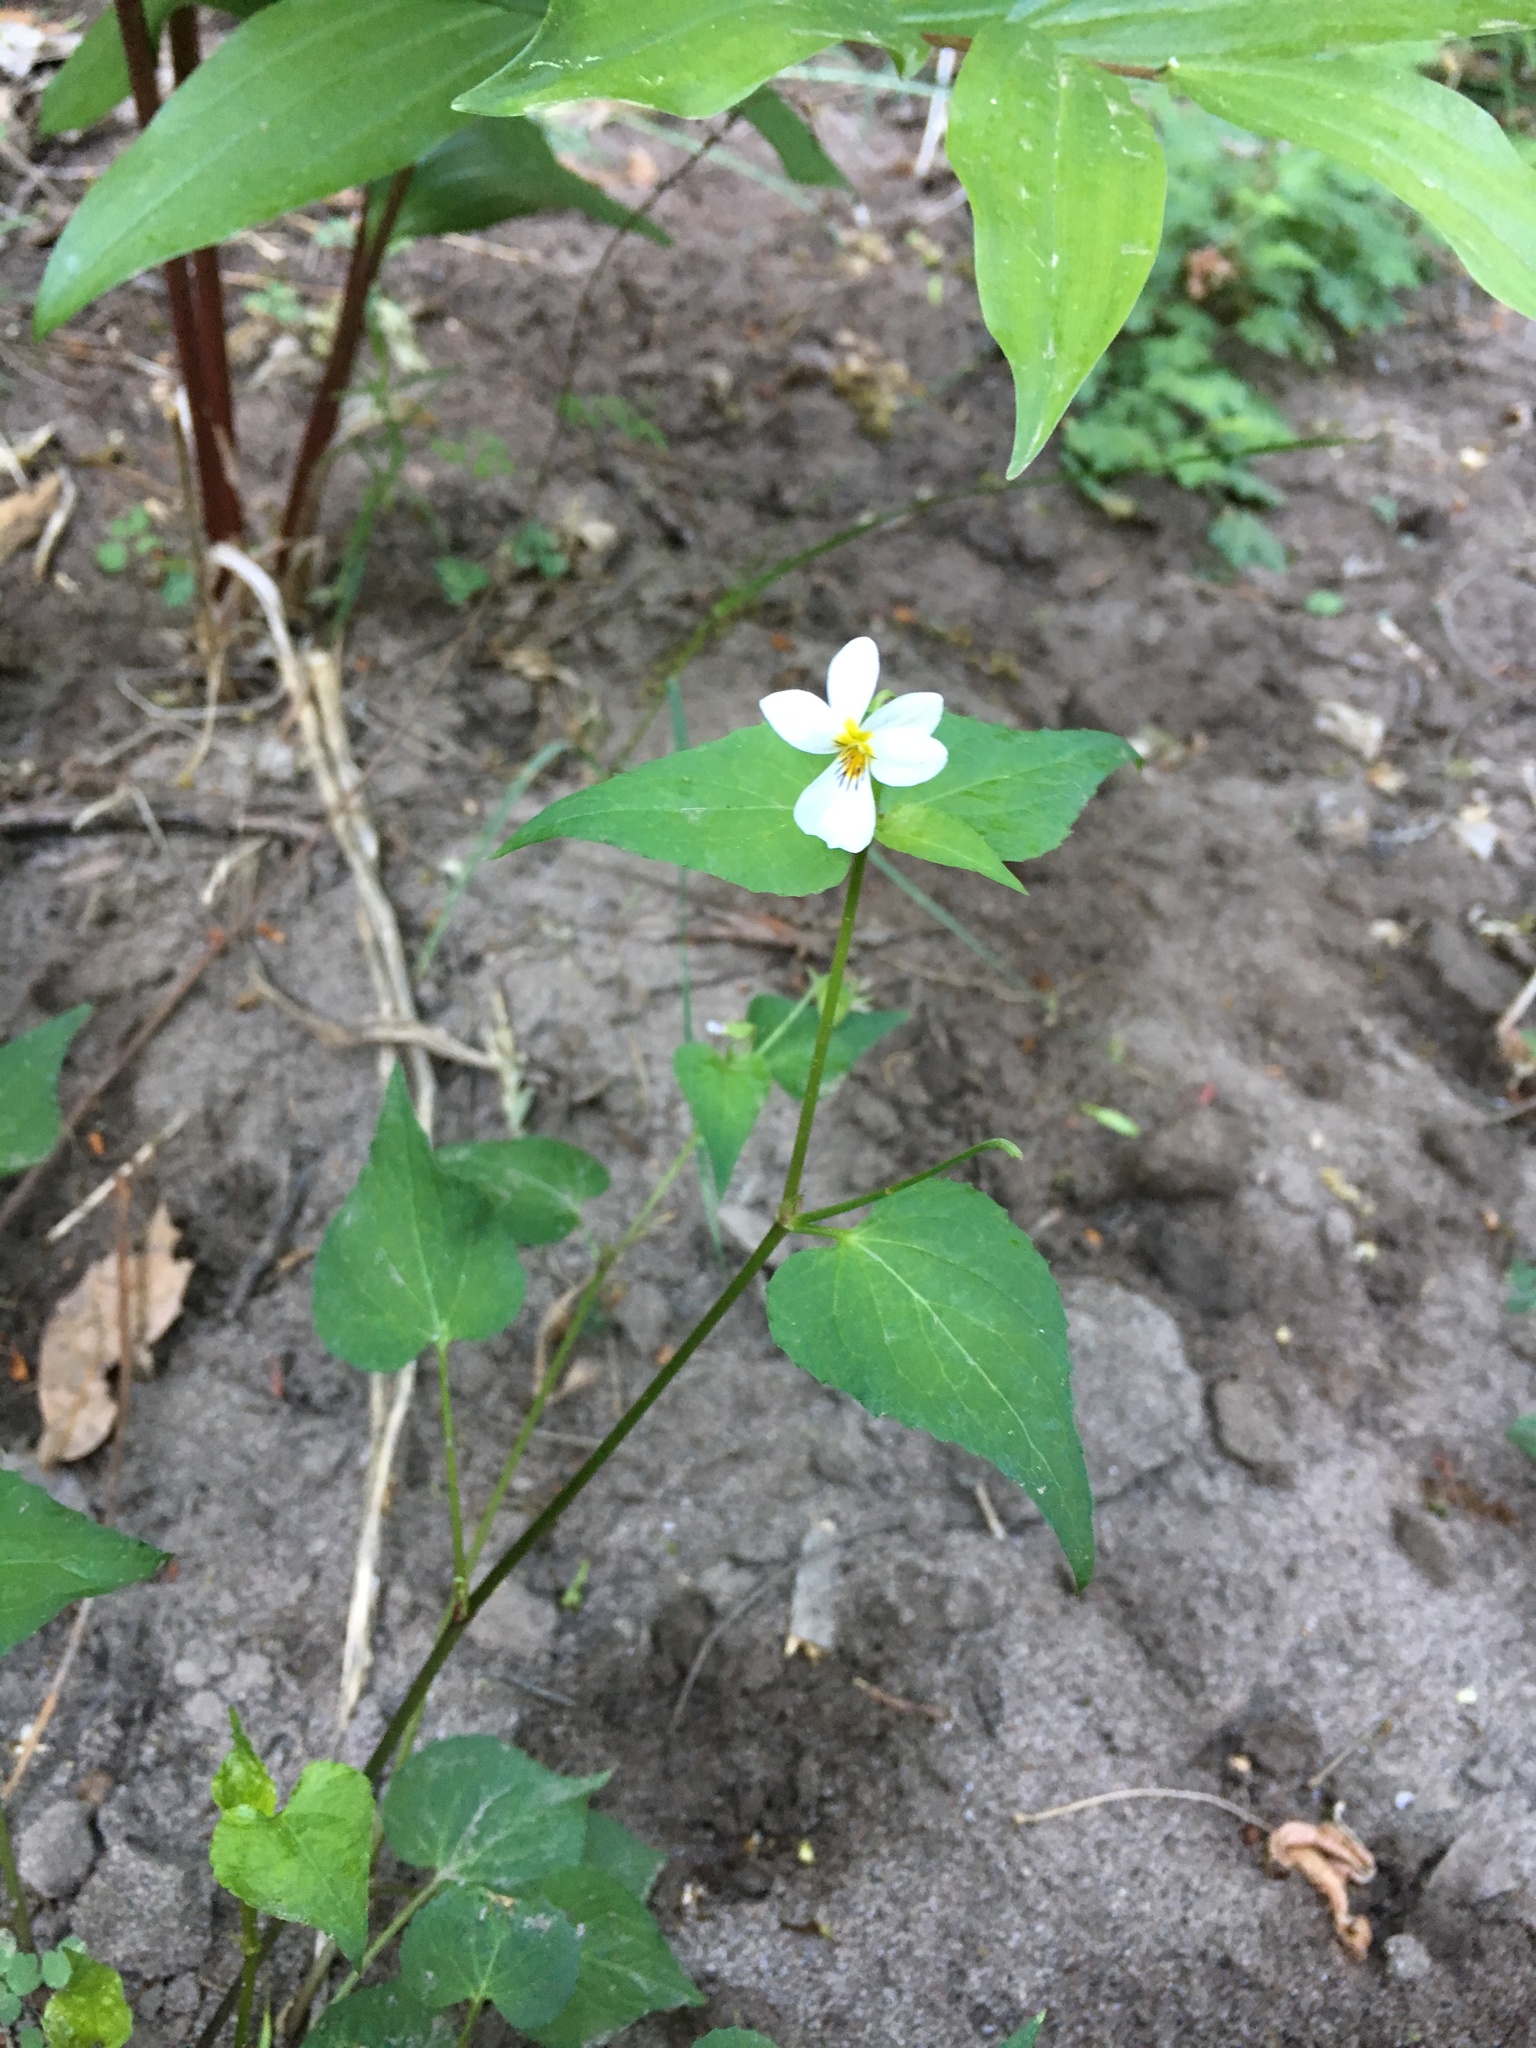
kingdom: Plantae
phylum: Tracheophyta
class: Magnoliopsida
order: Malpighiales
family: Violaceae
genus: Viola
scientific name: Viola canadensis
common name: Canada violet
